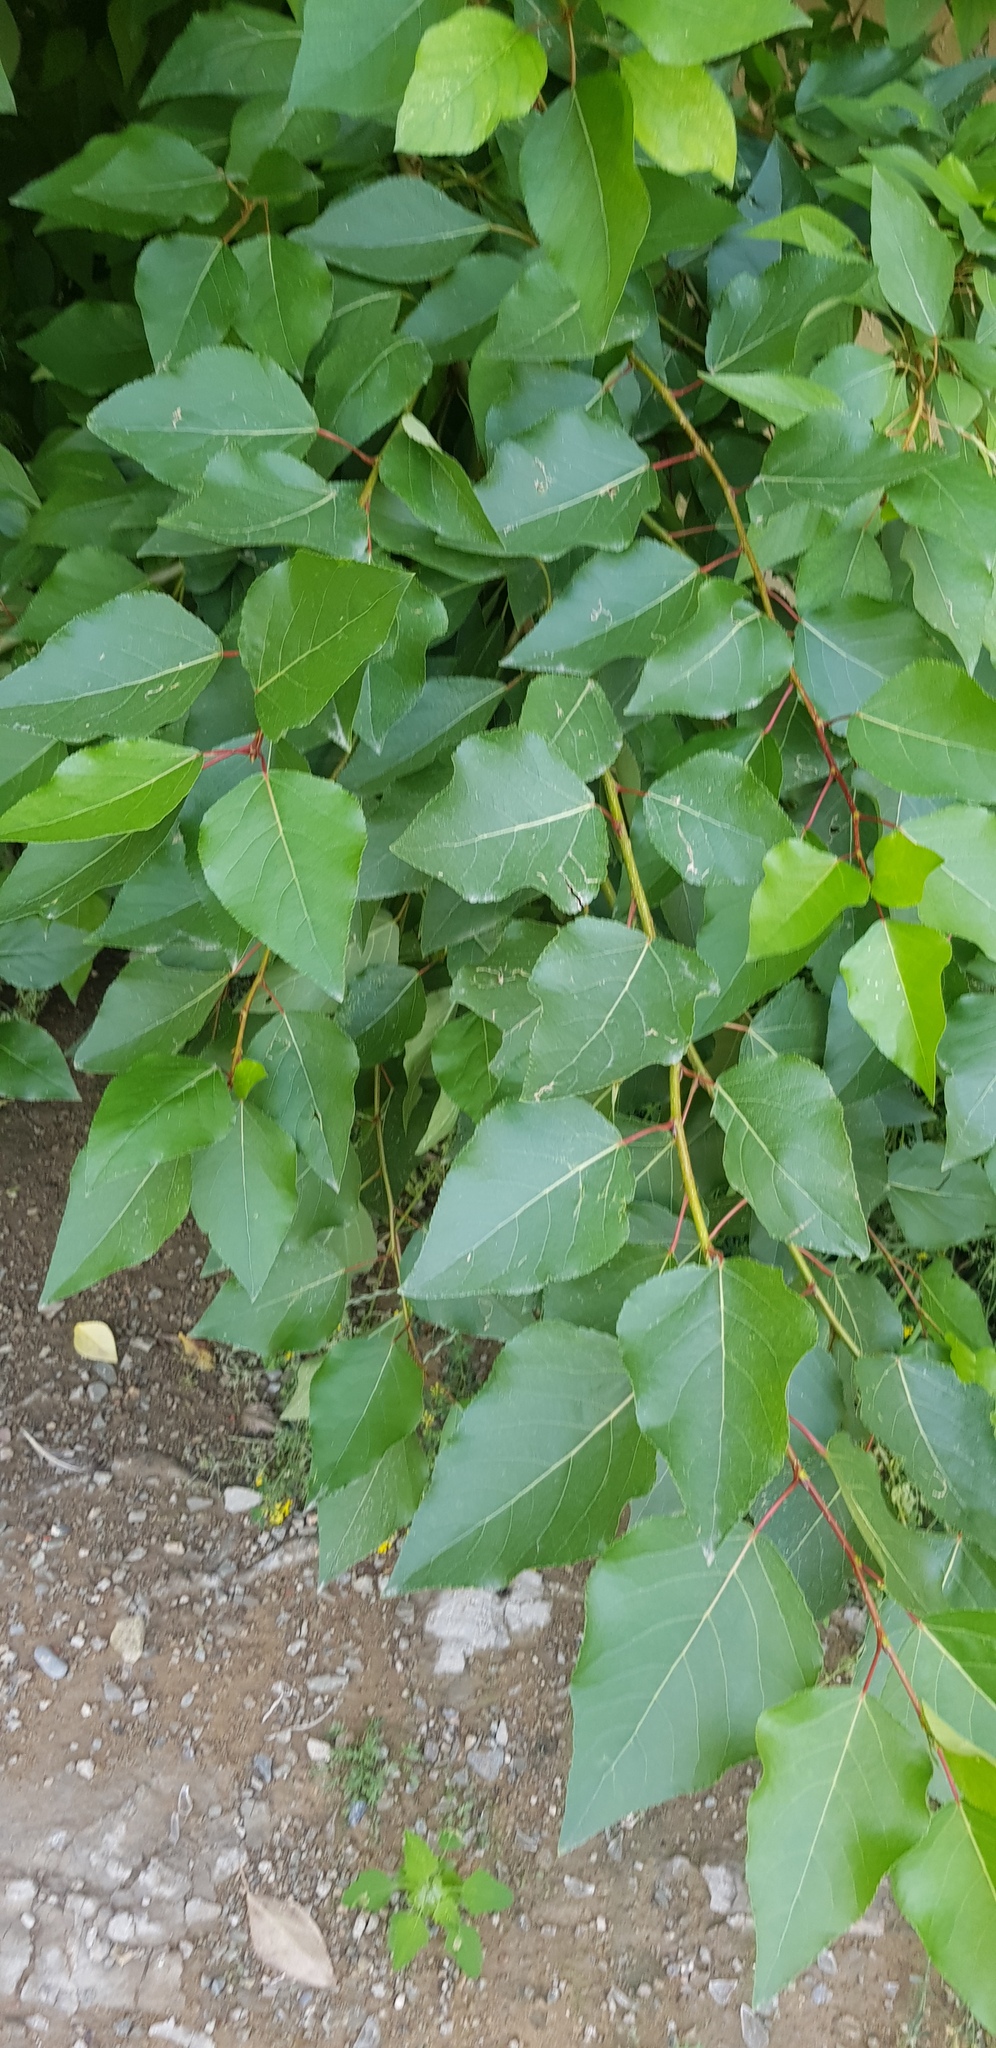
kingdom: Plantae
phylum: Tracheophyta
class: Magnoliopsida
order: Malpighiales
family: Salicaceae
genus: Populus
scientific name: Populus laurifolia
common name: Laurel-leaf poplar
